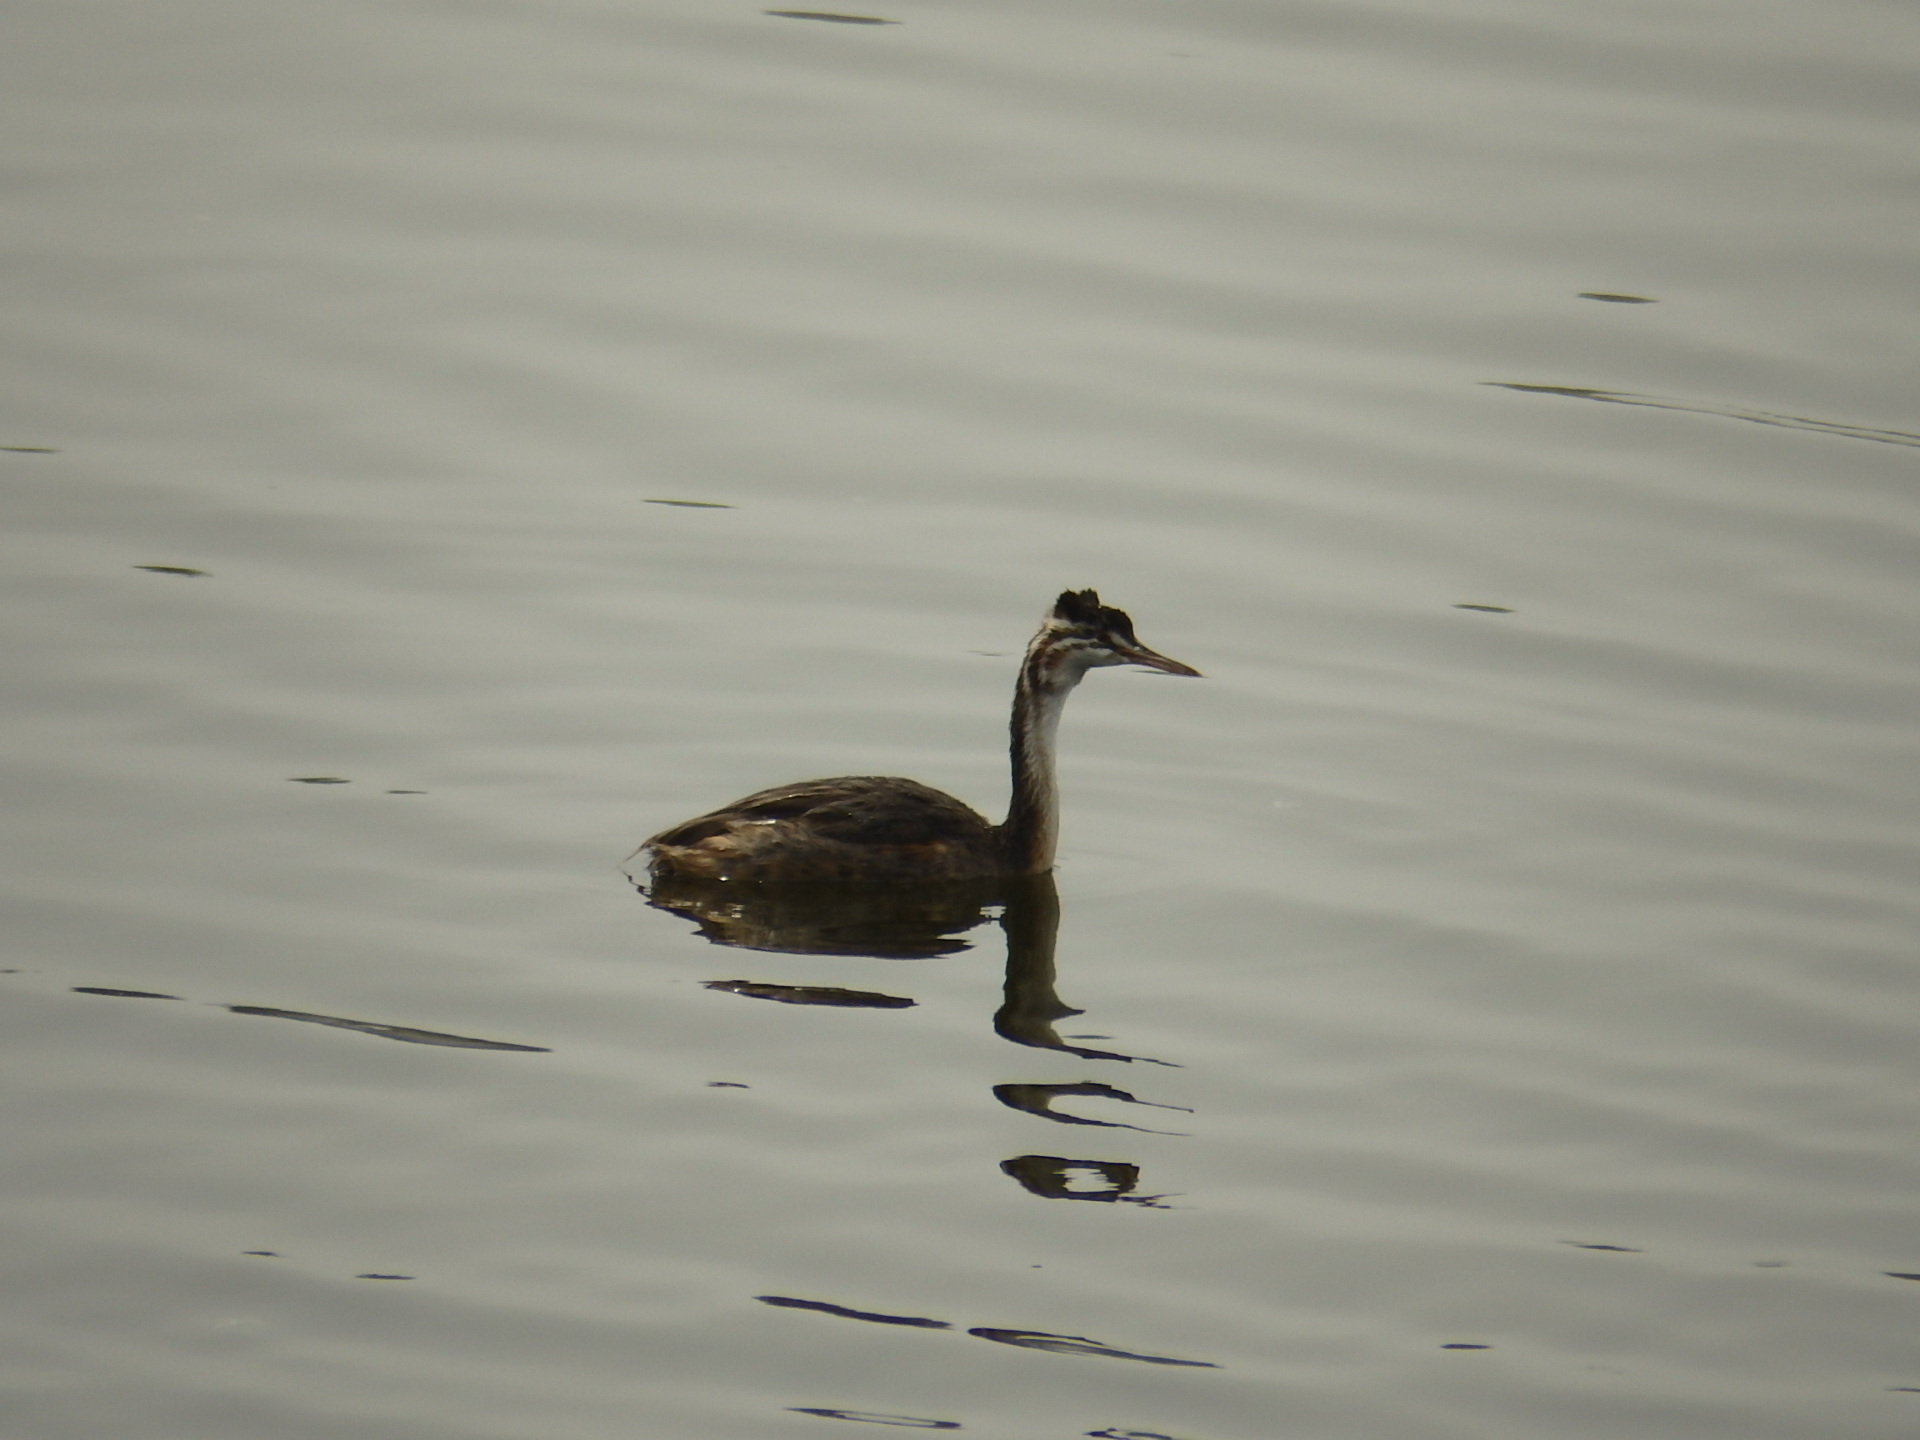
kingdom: Animalia
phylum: Chordata
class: Aves
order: Podicipediformes
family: Podicipedidae
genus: Podiceps
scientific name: Podiceps cristatus
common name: Great crested grebe
